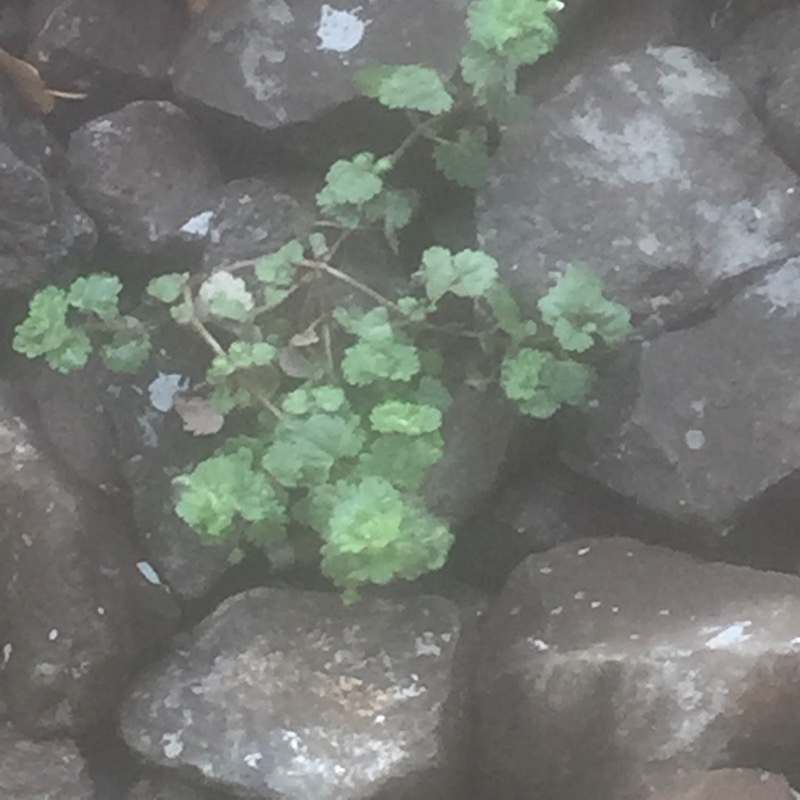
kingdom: Plantae
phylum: Tracheophyta
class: Magnoliopsida
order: Lamiales
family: Plantaginaceae
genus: Veronica
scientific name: Veronica cymbalaria
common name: Pale speedwell
